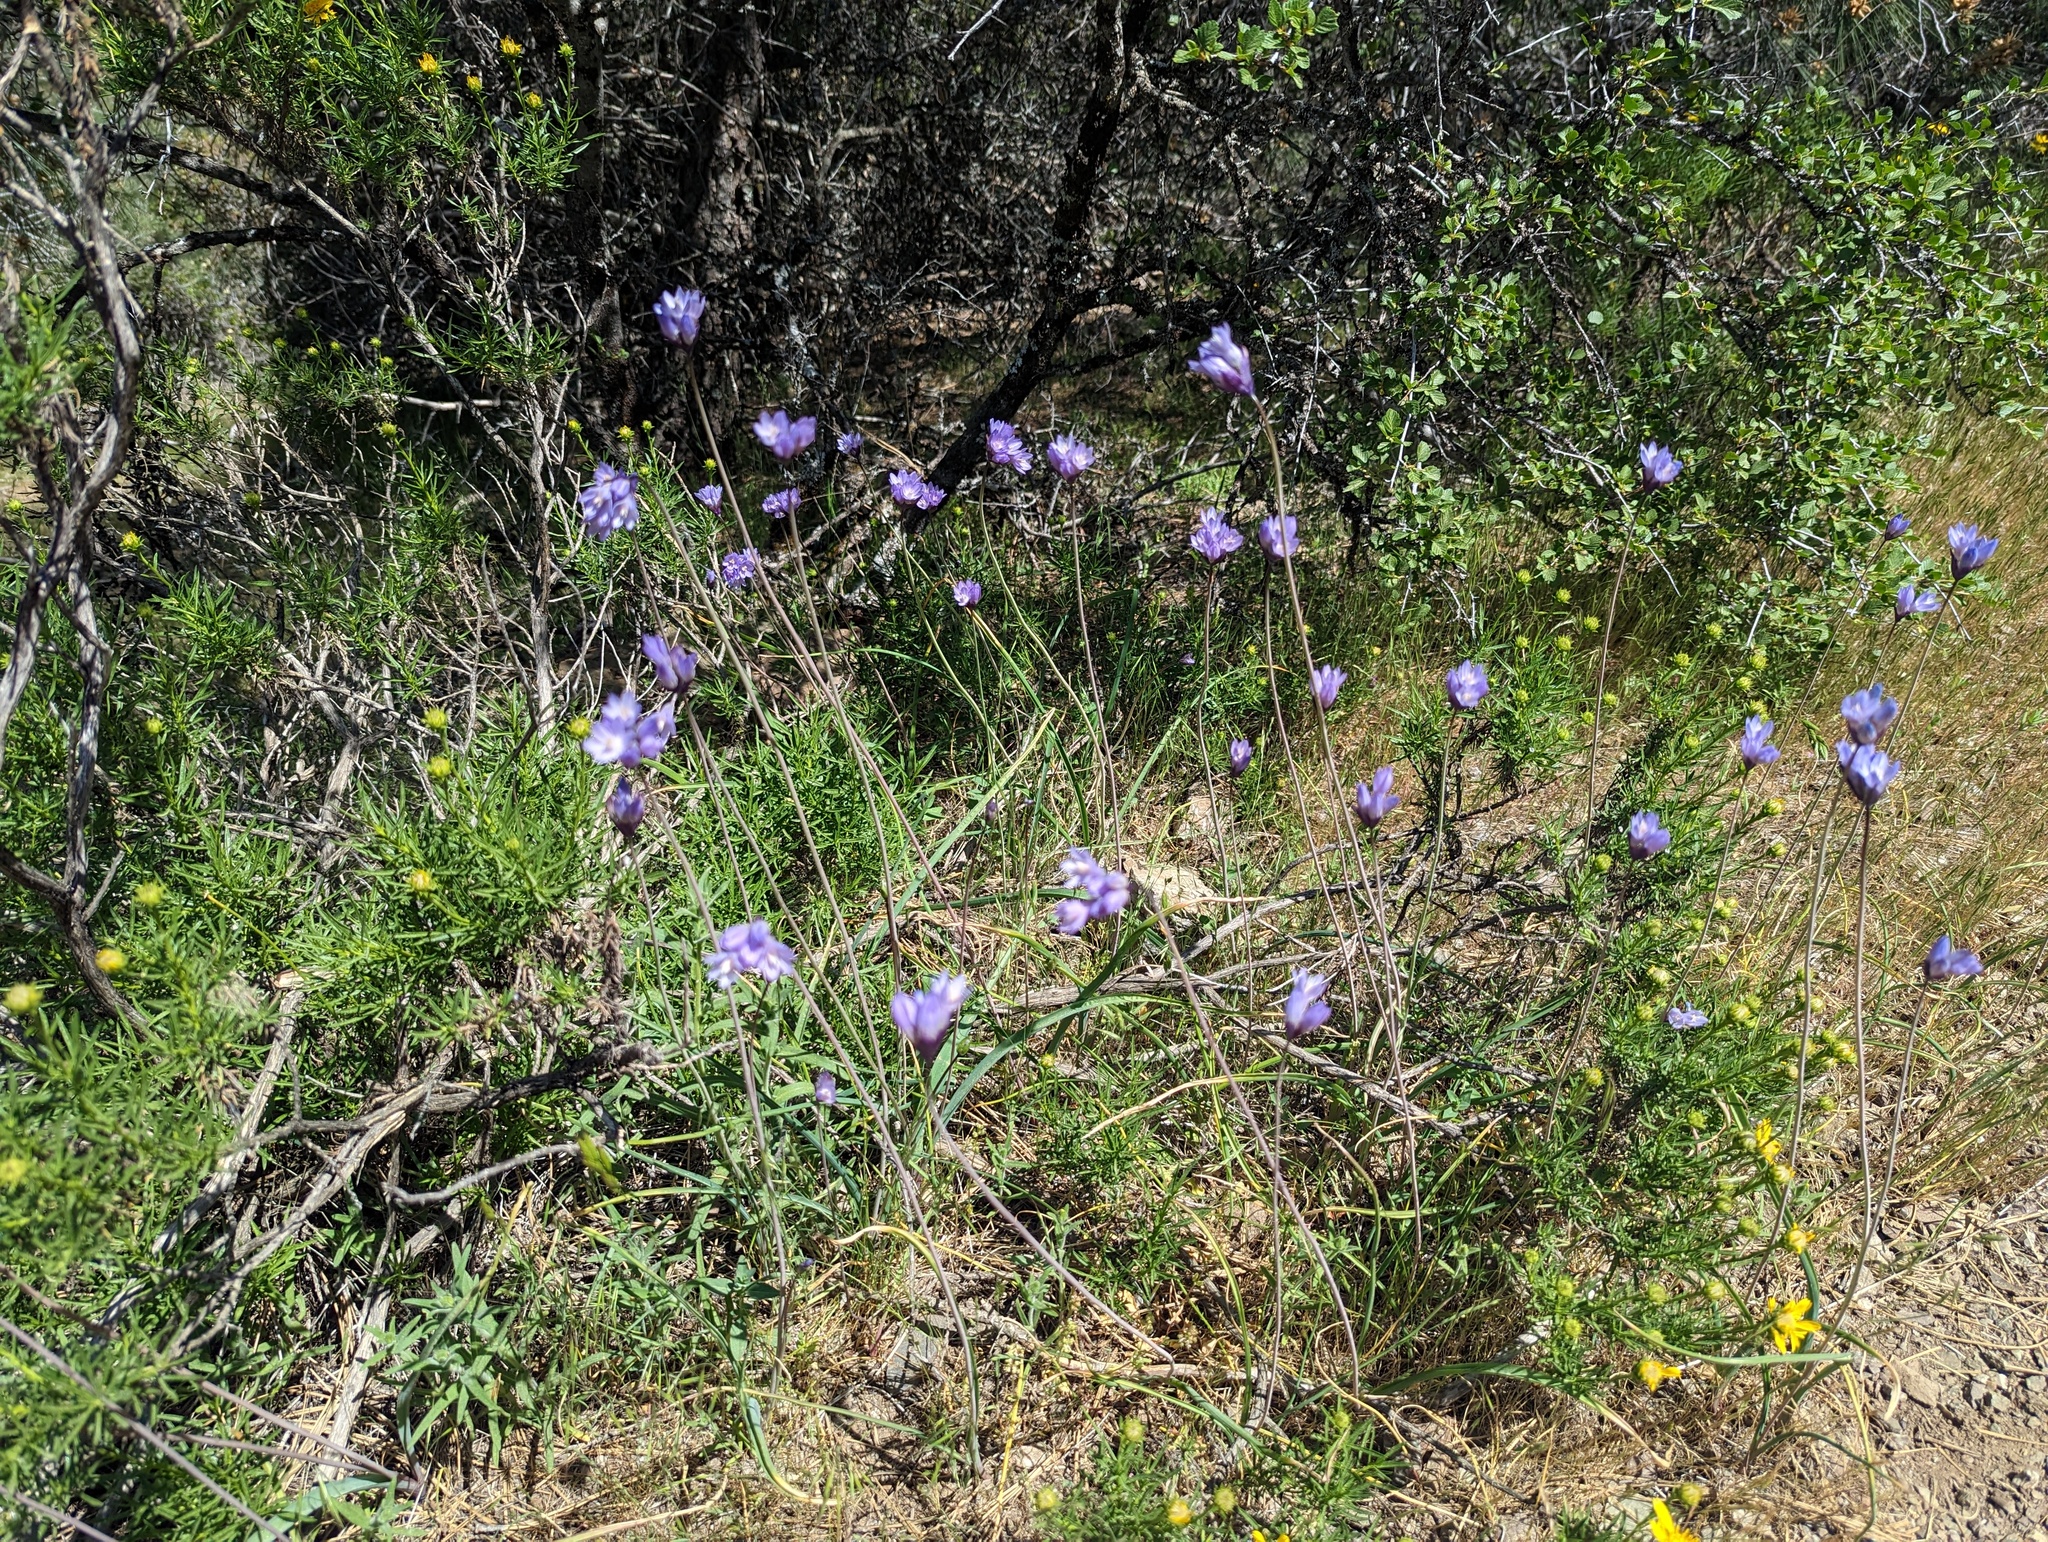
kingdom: Plantae
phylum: Tracheophyta
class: Liliopsida
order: Asparagales
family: Asparagaceae
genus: Dipterostemon
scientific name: Dipterostemon capitatus
